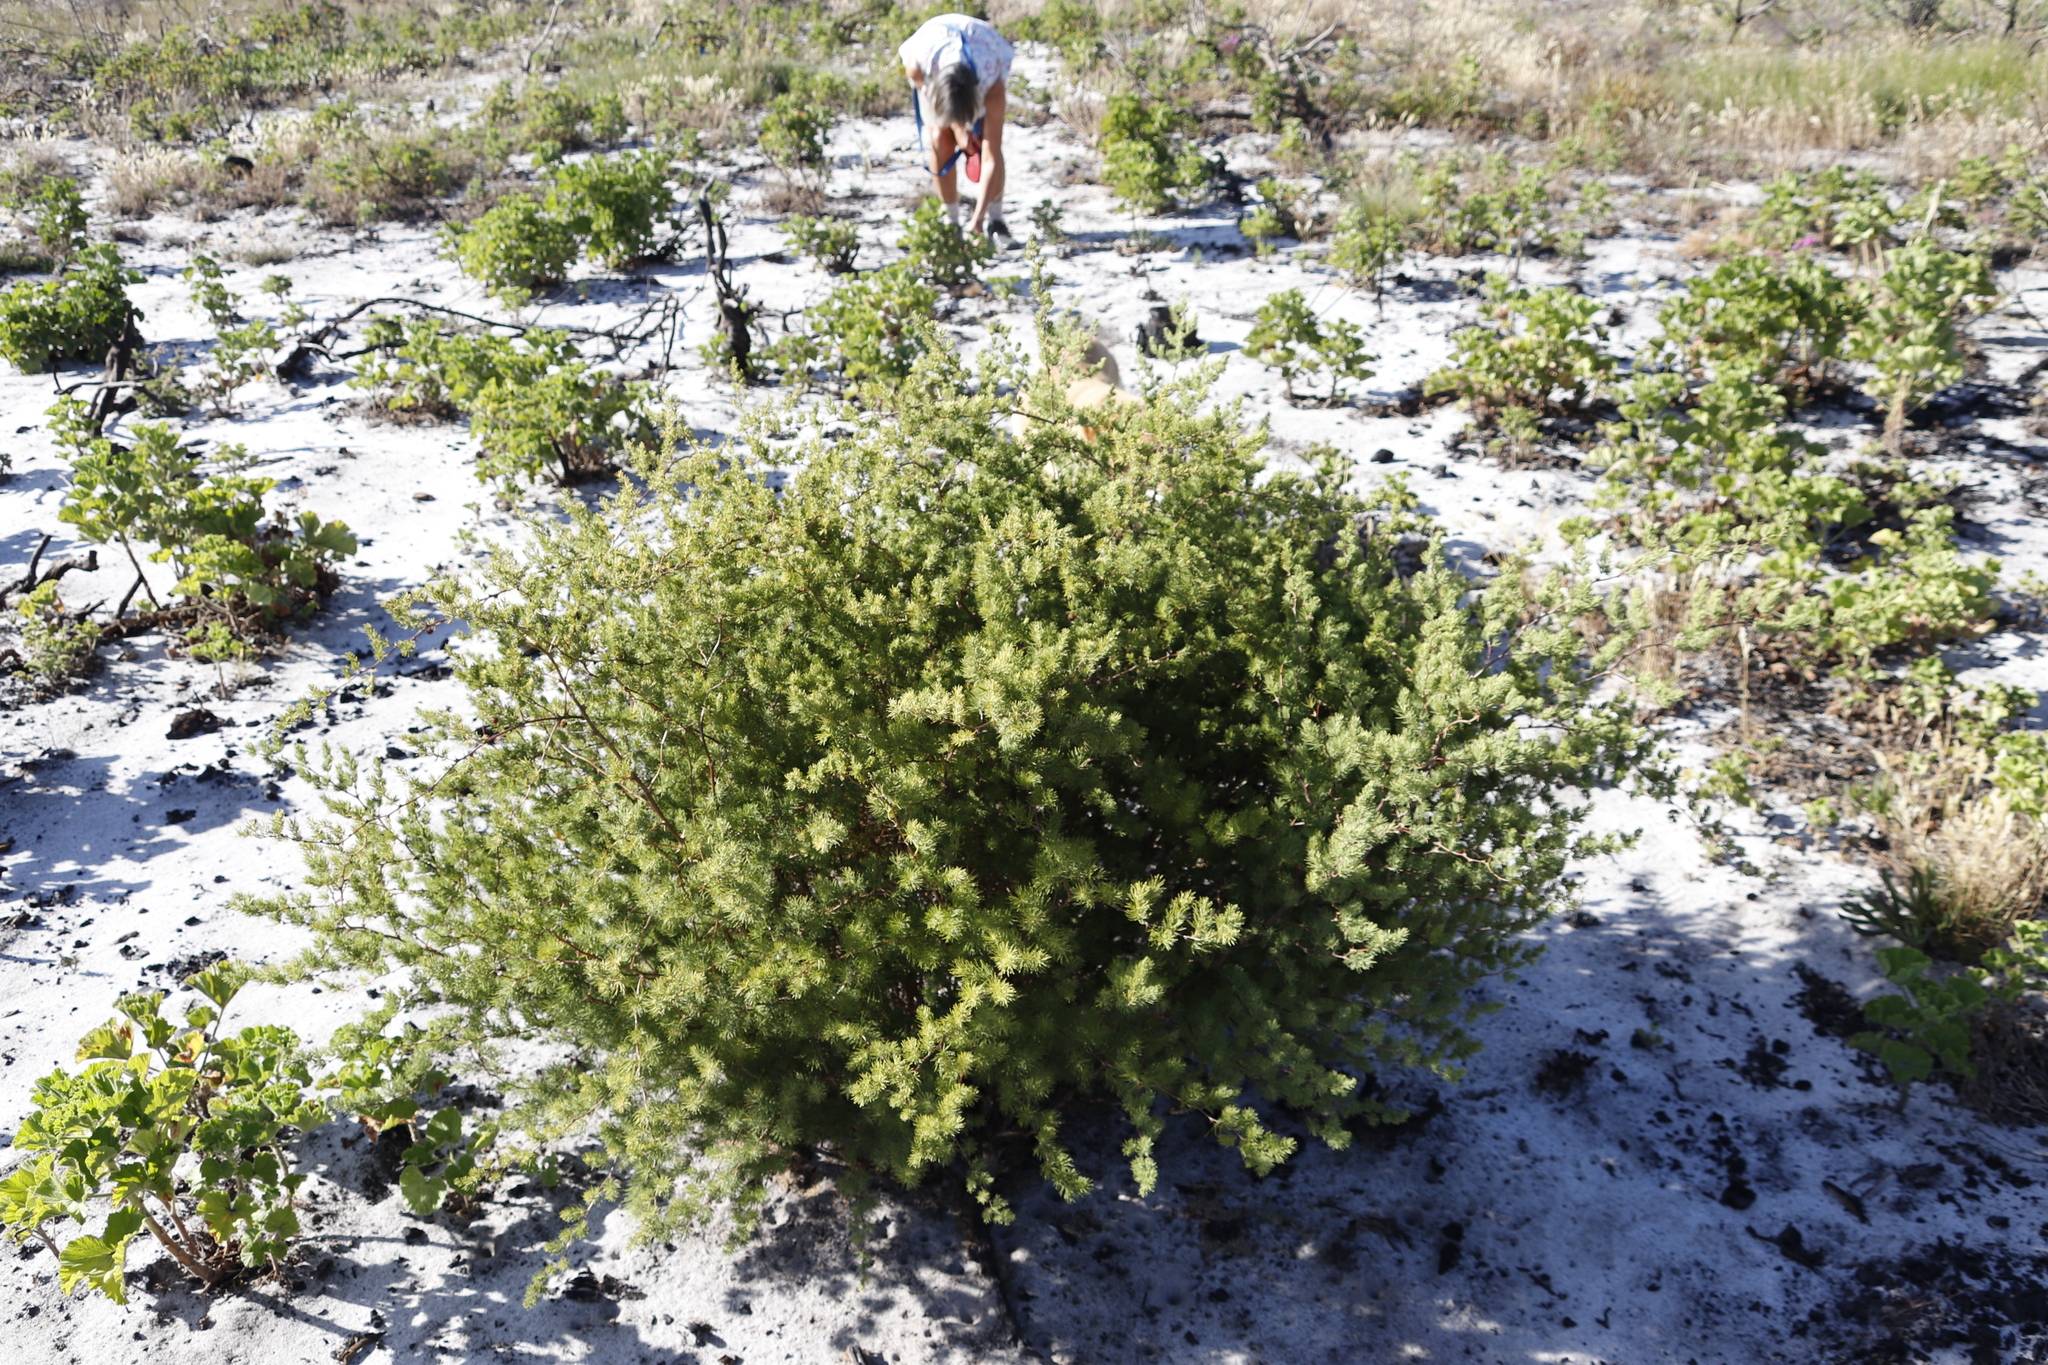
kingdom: Plantae
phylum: Tracheophyta
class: Liliopsida
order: Asparagales
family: Asparagaceae
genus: Asparagus
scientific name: Asparagus rubicundus
